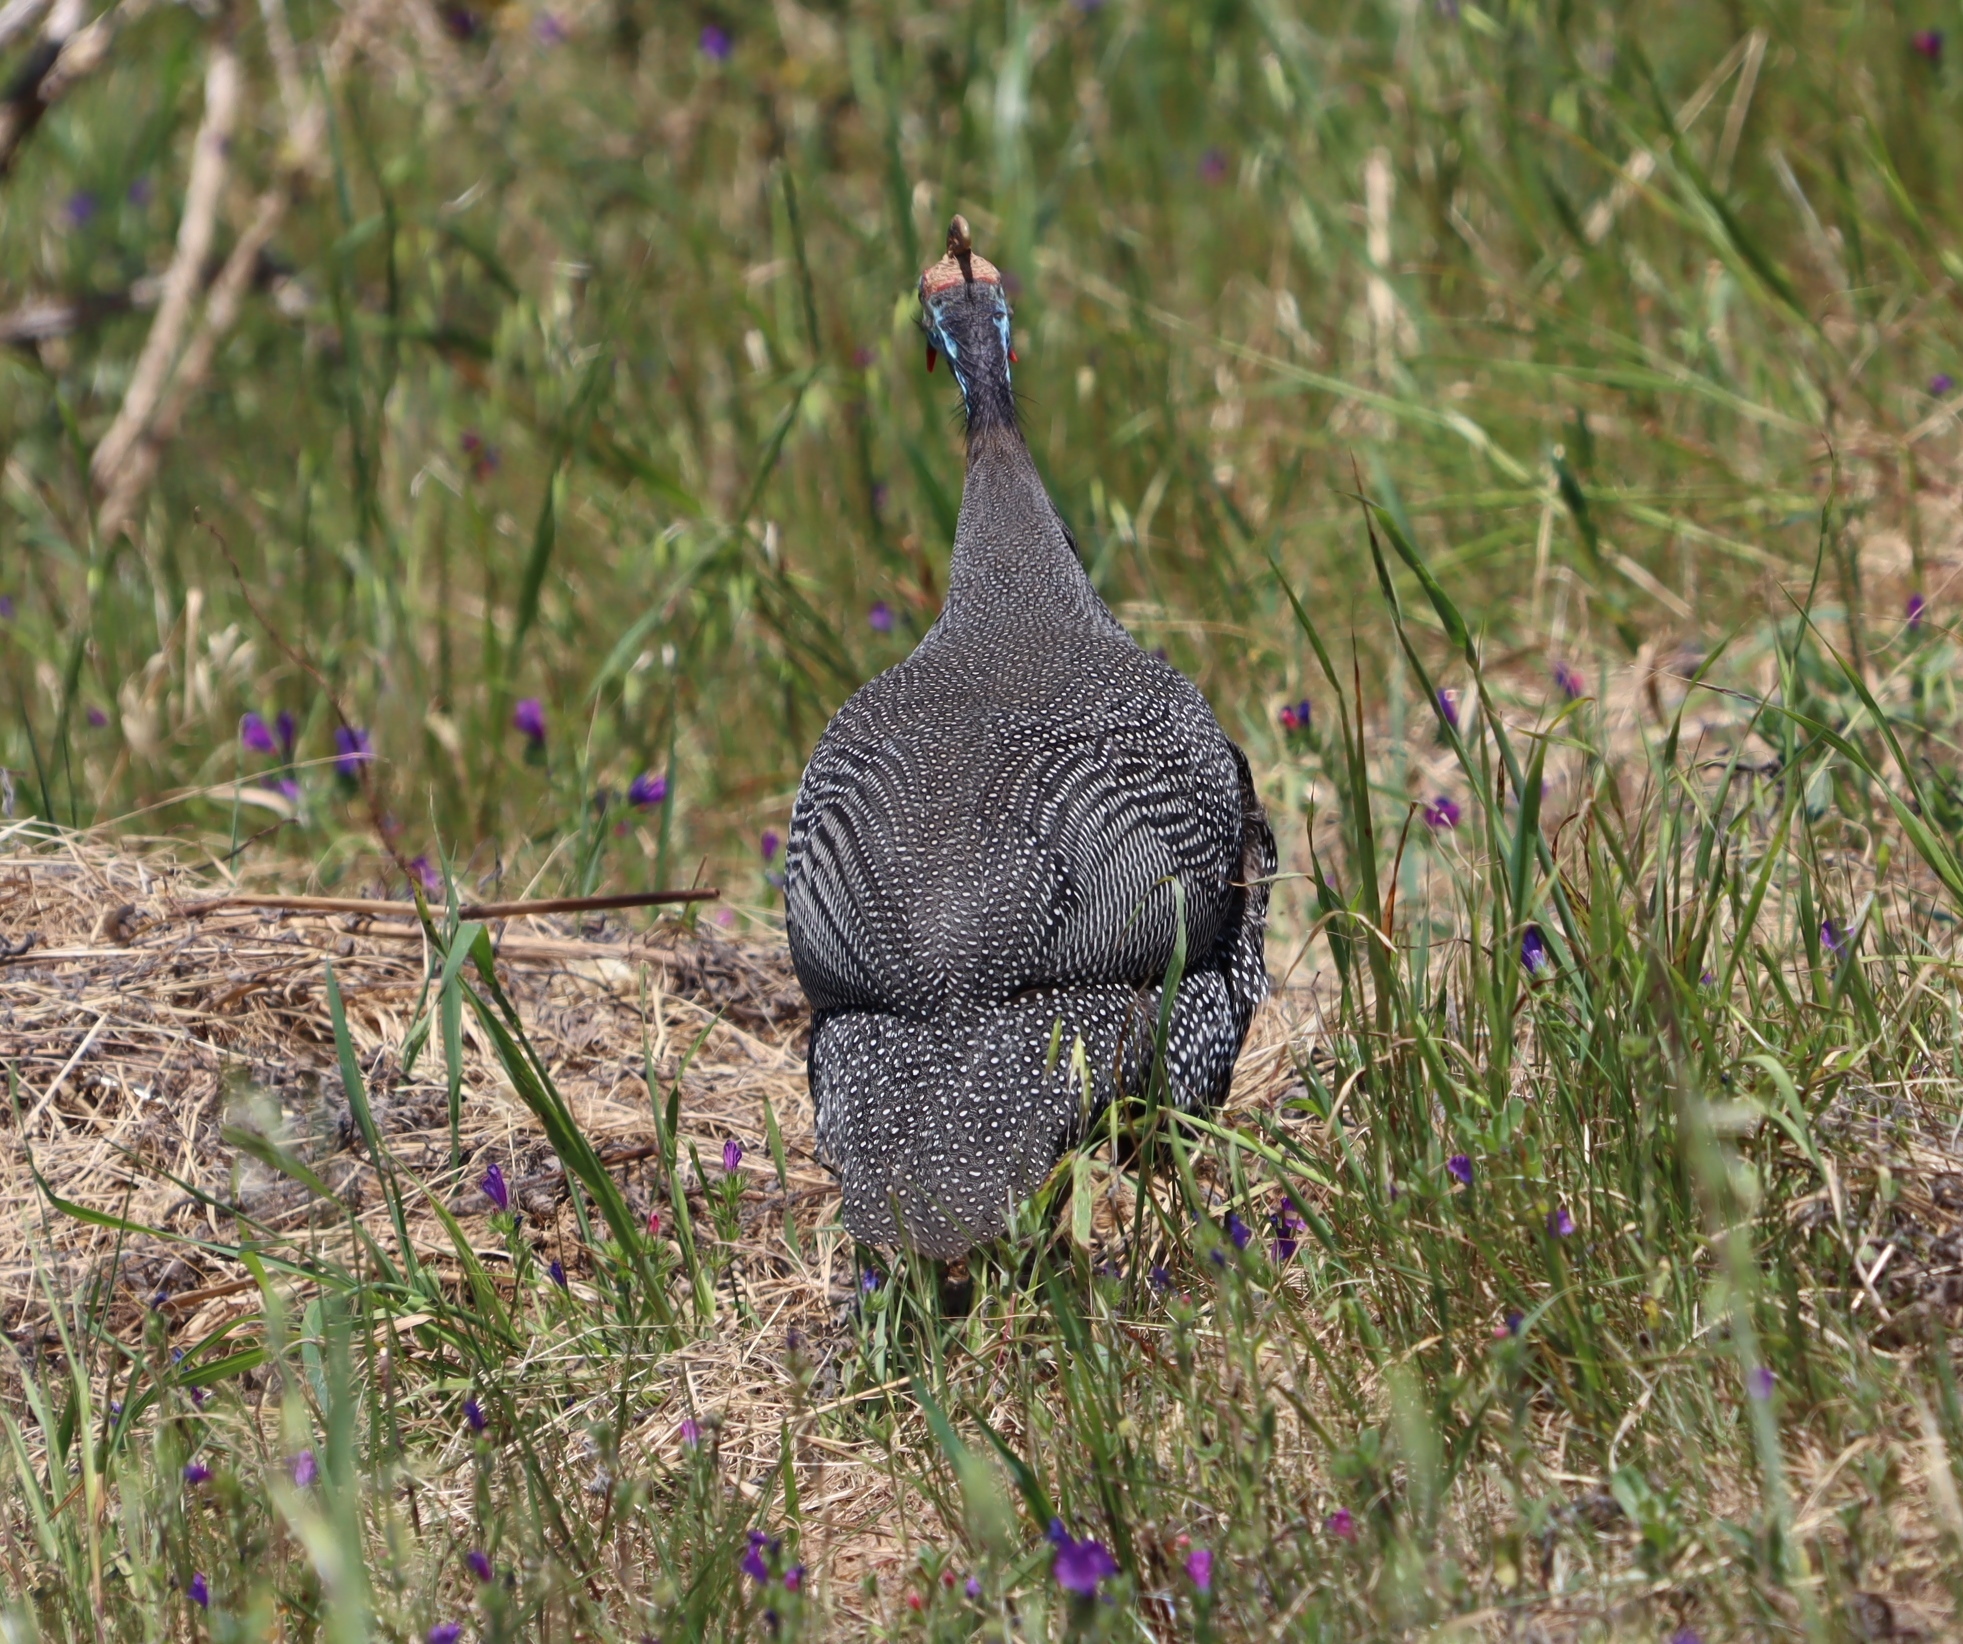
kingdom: Animalia
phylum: Chordata
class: Aves
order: Galliformes
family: Numididae
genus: Numida
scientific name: Numida meleagris
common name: Helmeted guineafowl
